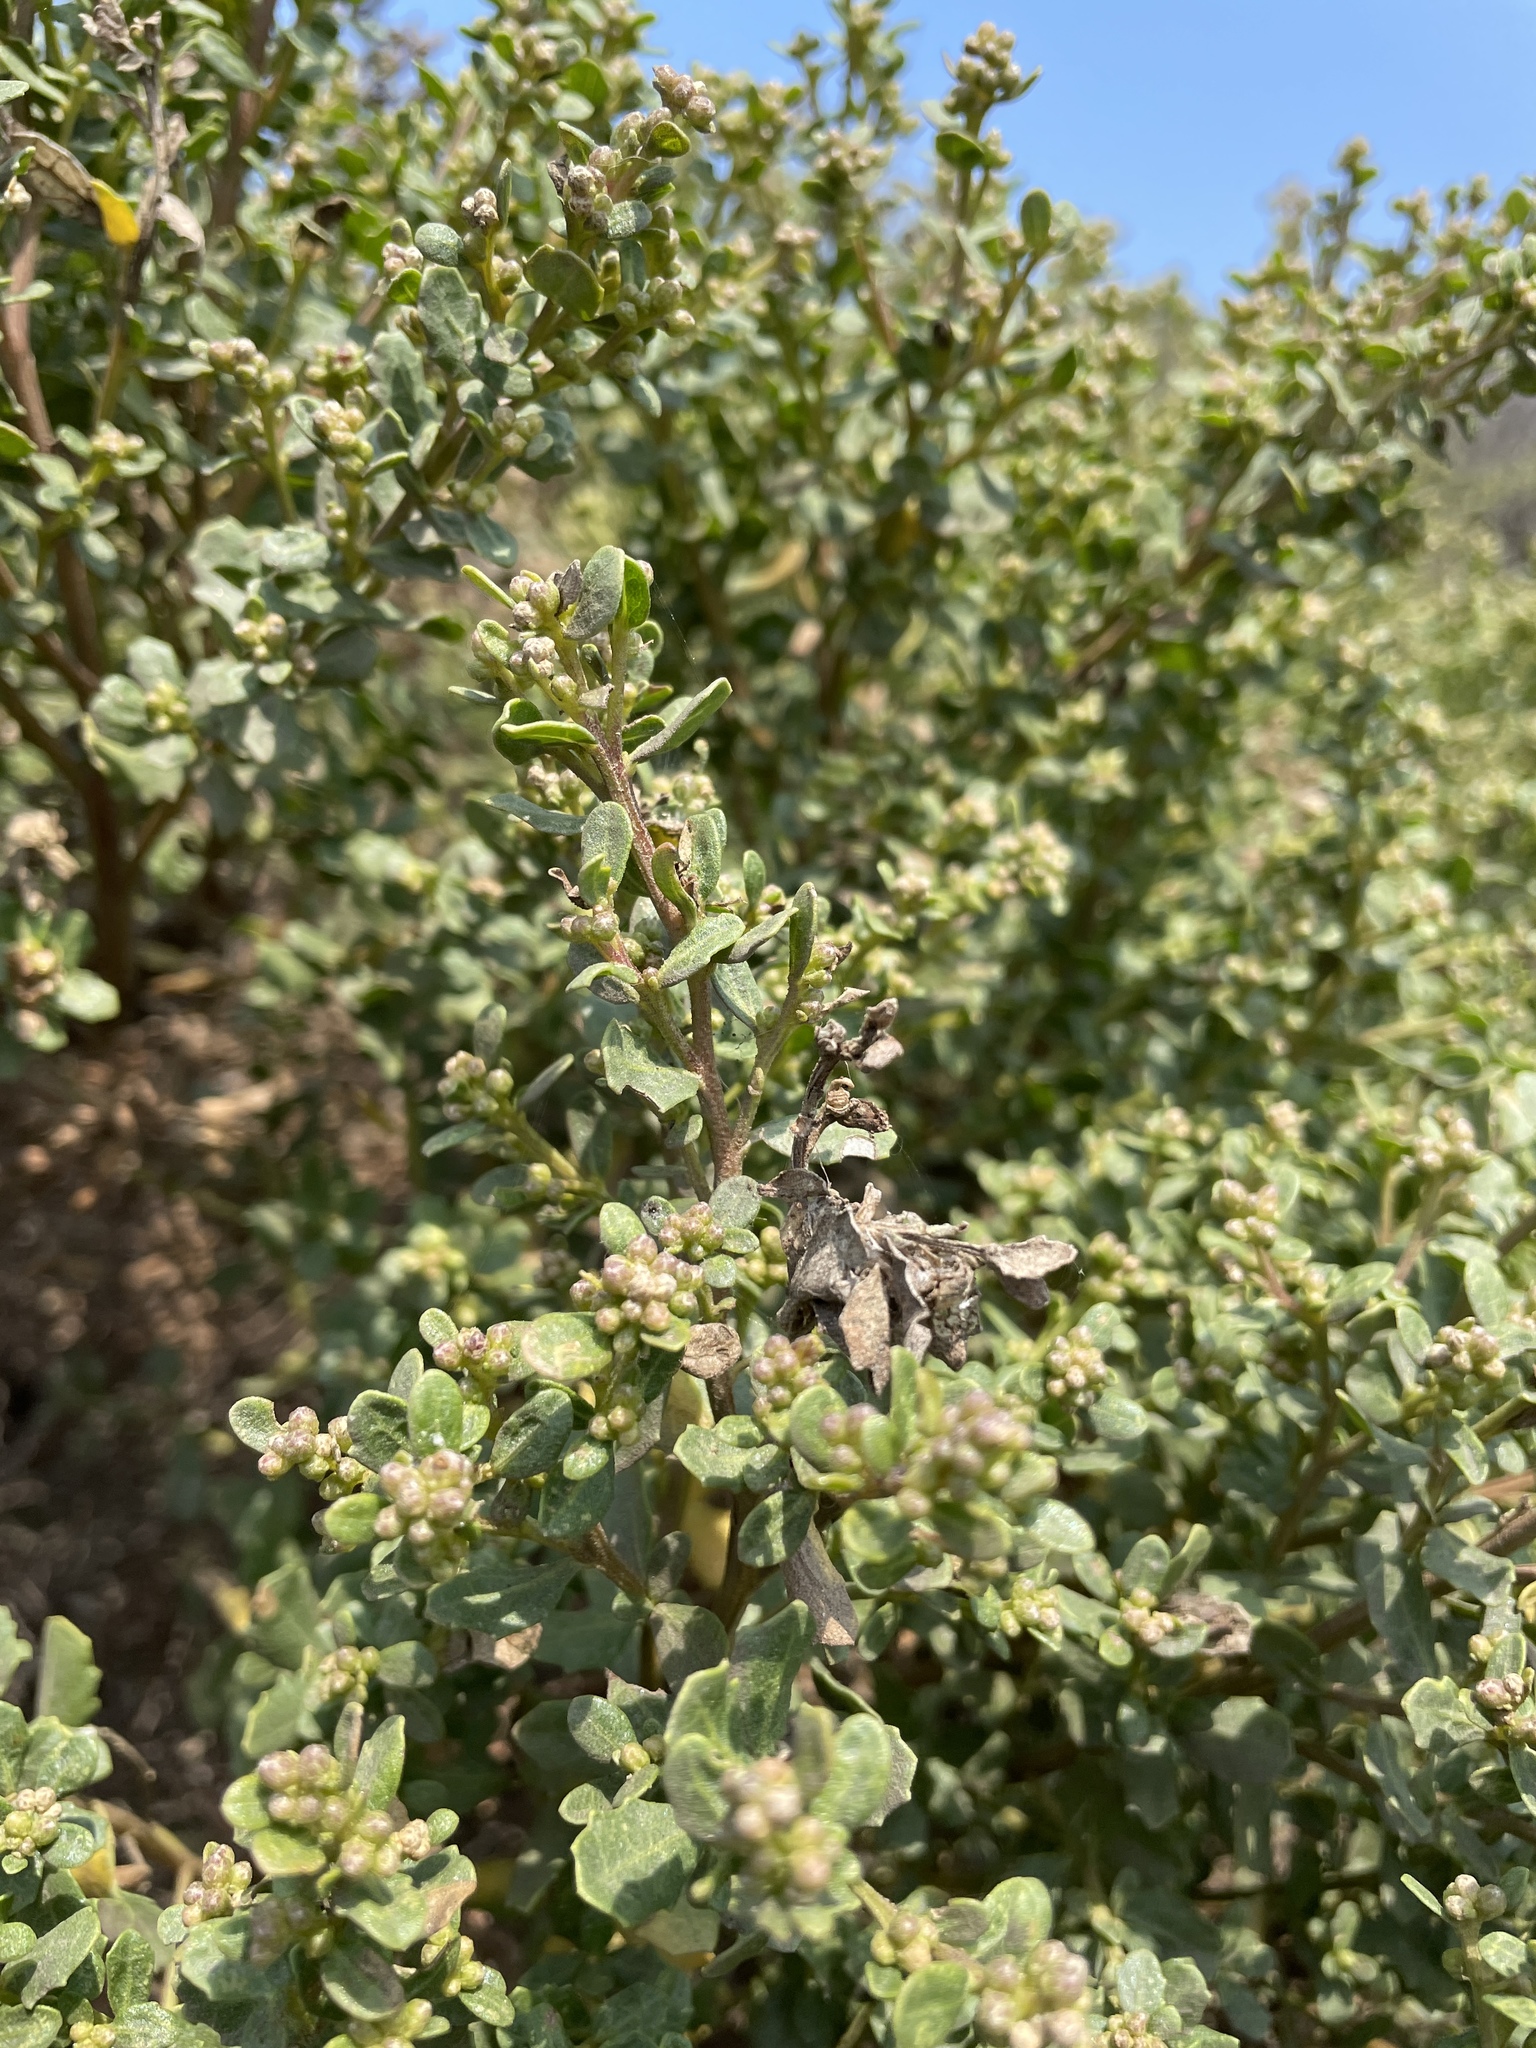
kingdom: Plantae
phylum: Tracheophyta
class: Magnoliopsida
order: Asterales
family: Asteraceae
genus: Baccharis
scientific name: Baccharis pilularis
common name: Coyotebrush
